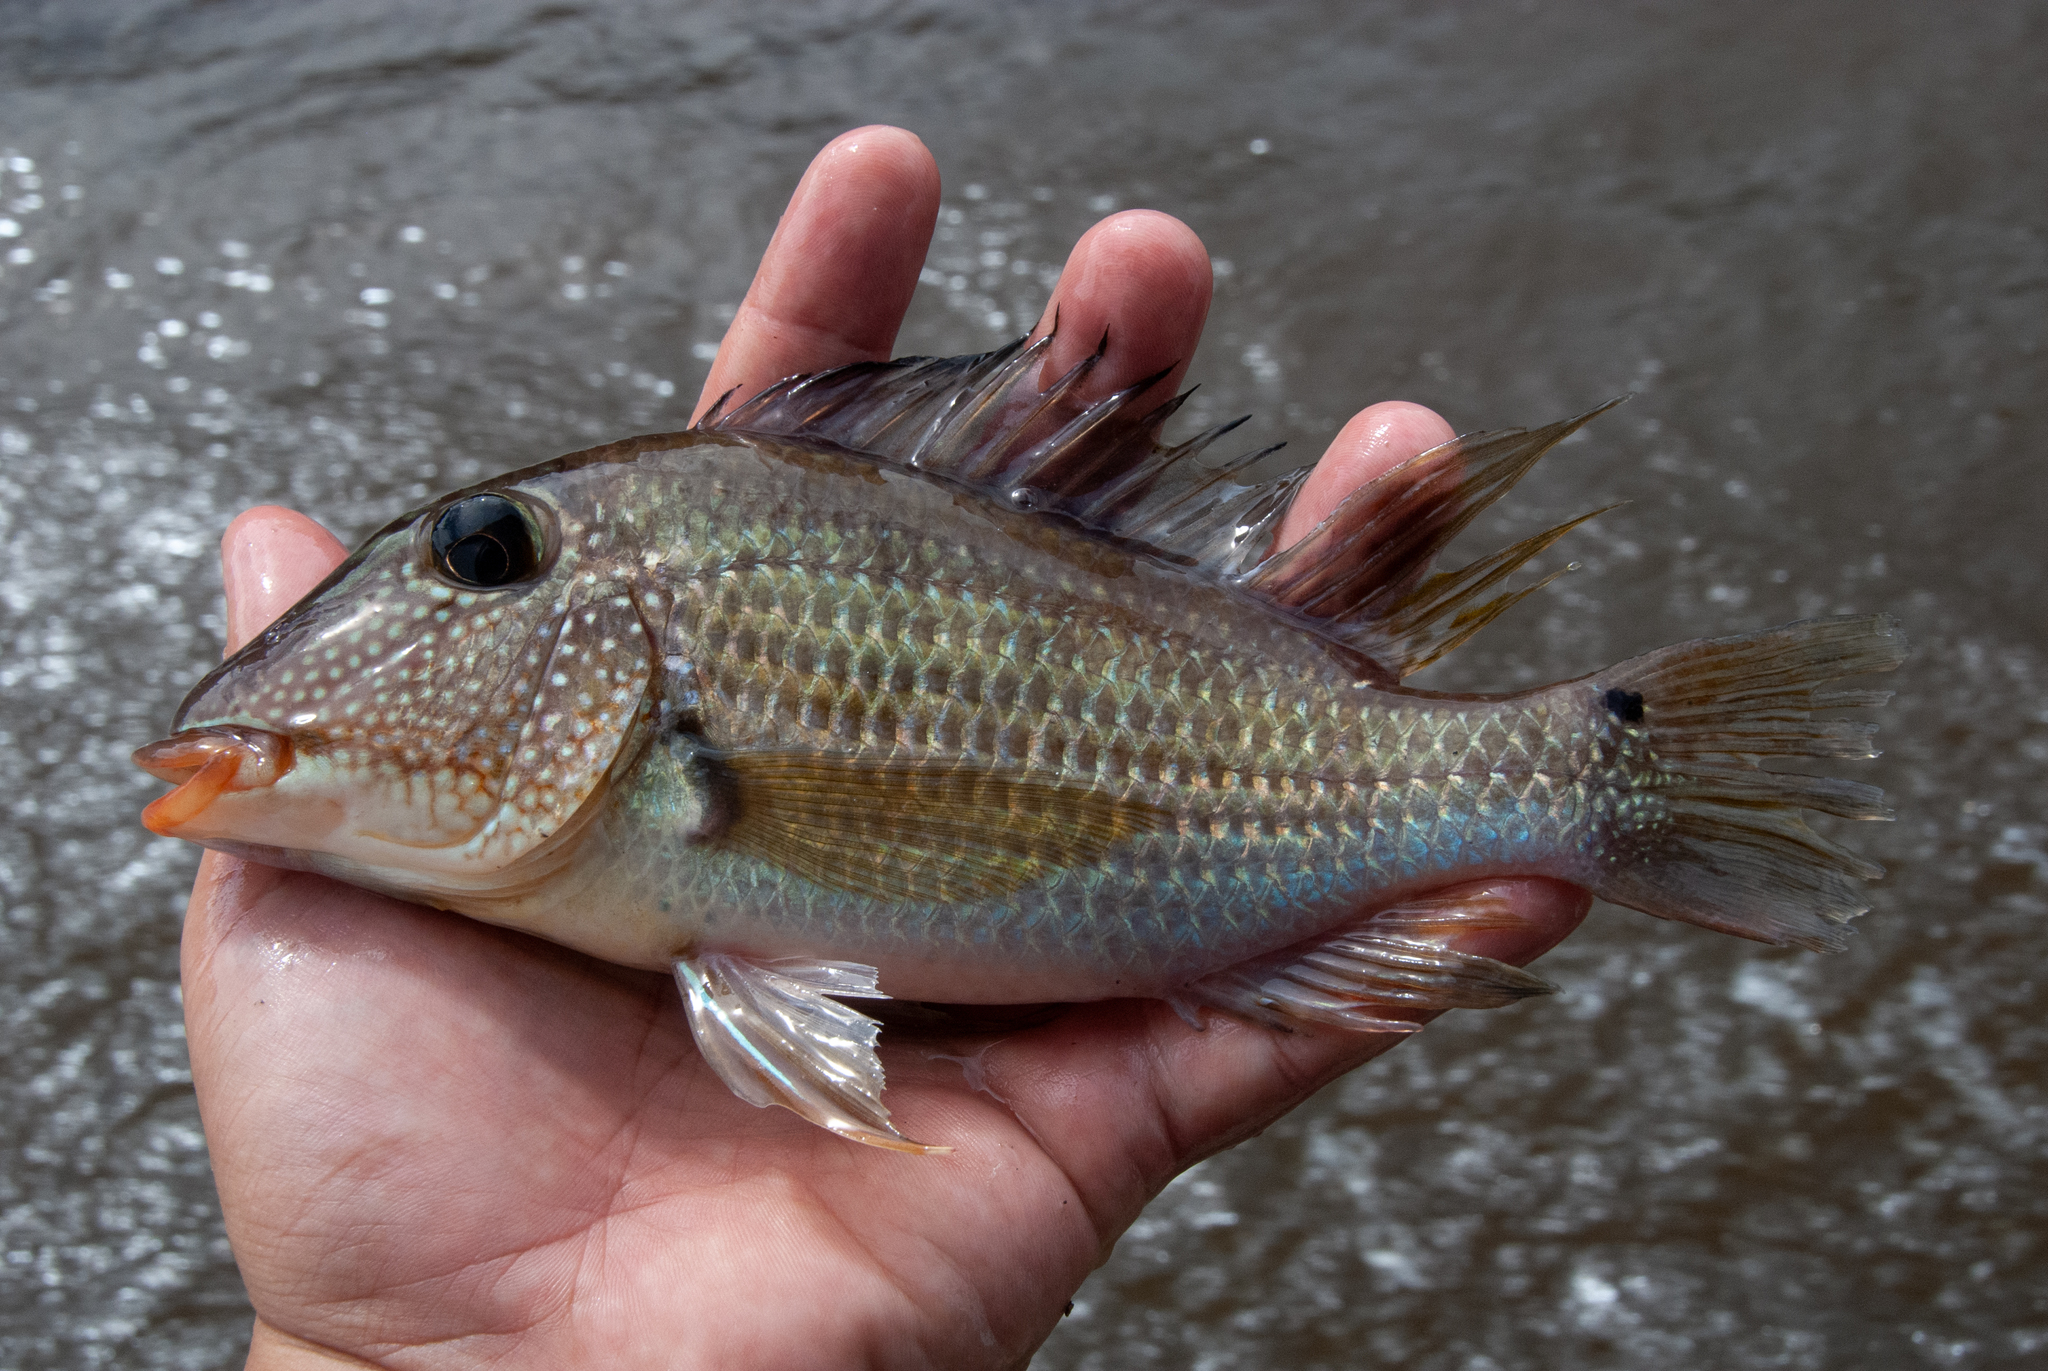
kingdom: Animalia
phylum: Chordata
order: Perciformes
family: Cichlidae
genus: Satanoperca
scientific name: Satanoperca jurupari
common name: Demon eartheater
